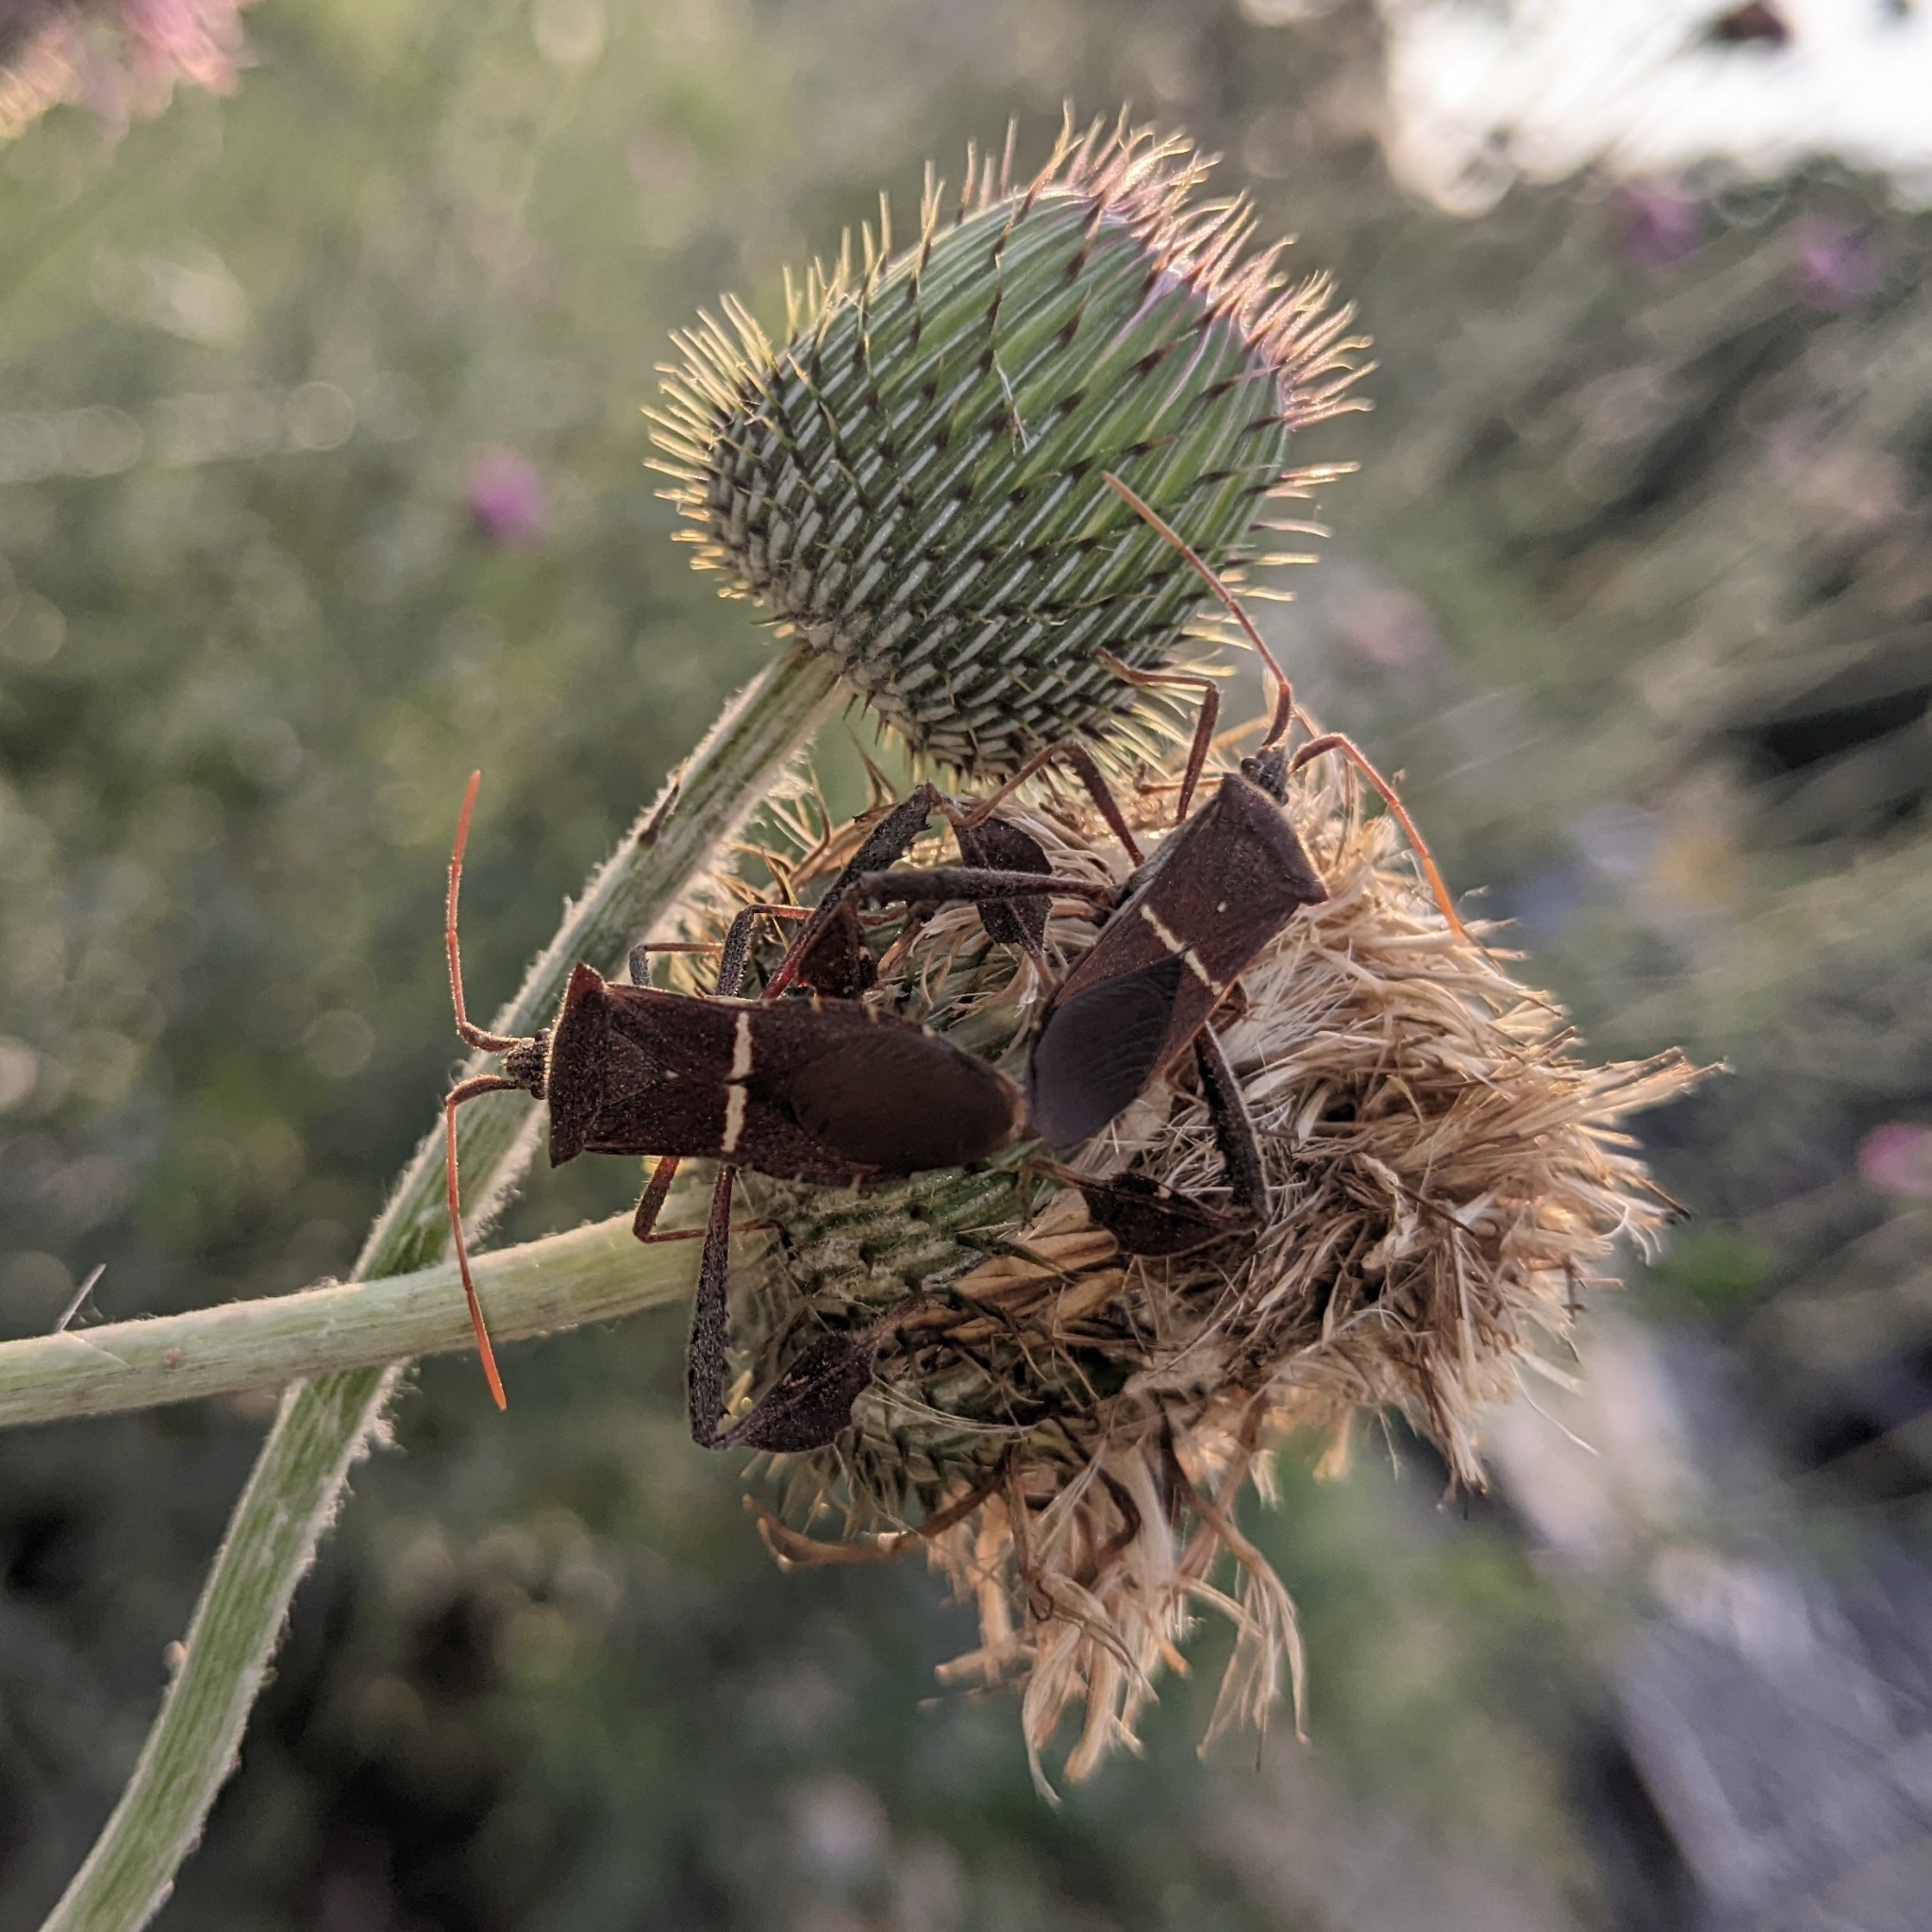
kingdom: Animalia
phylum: Arthropoda
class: Insecta
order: Hemiptera
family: Coreidae
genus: Leptoglossus
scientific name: Leptoglossus phyllopus
